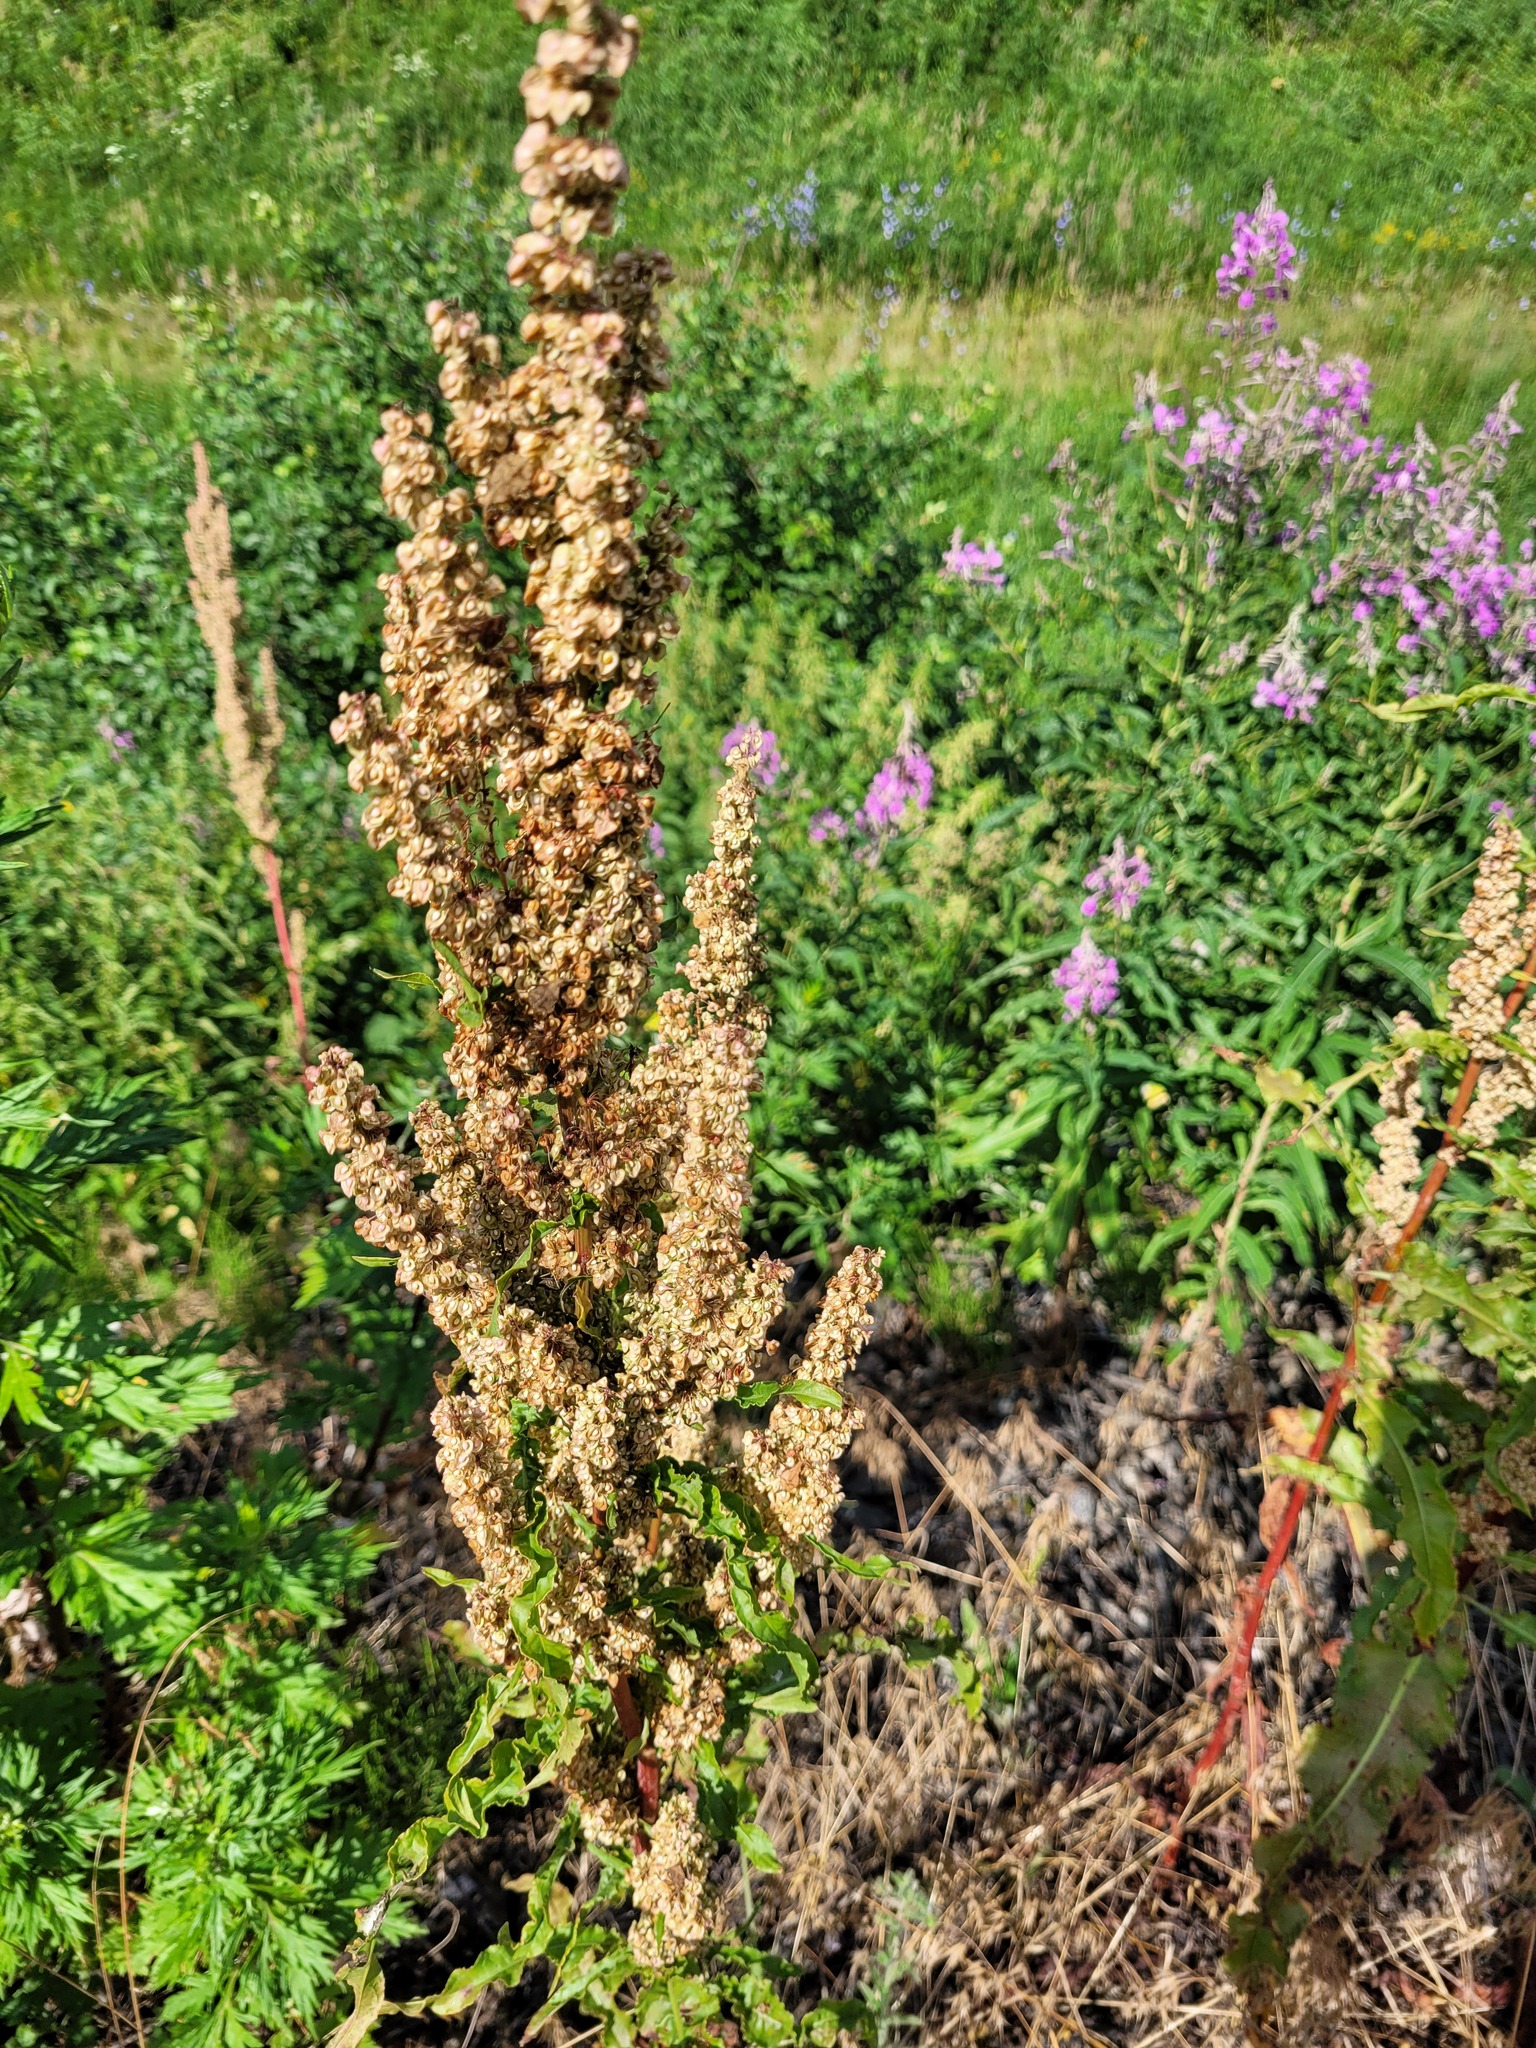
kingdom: Plantae
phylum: Tracheophyta
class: Magnoliopsida
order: Caryophyllales
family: Polygonaceae
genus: Rumex
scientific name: Rumex crispus
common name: Curled dock
